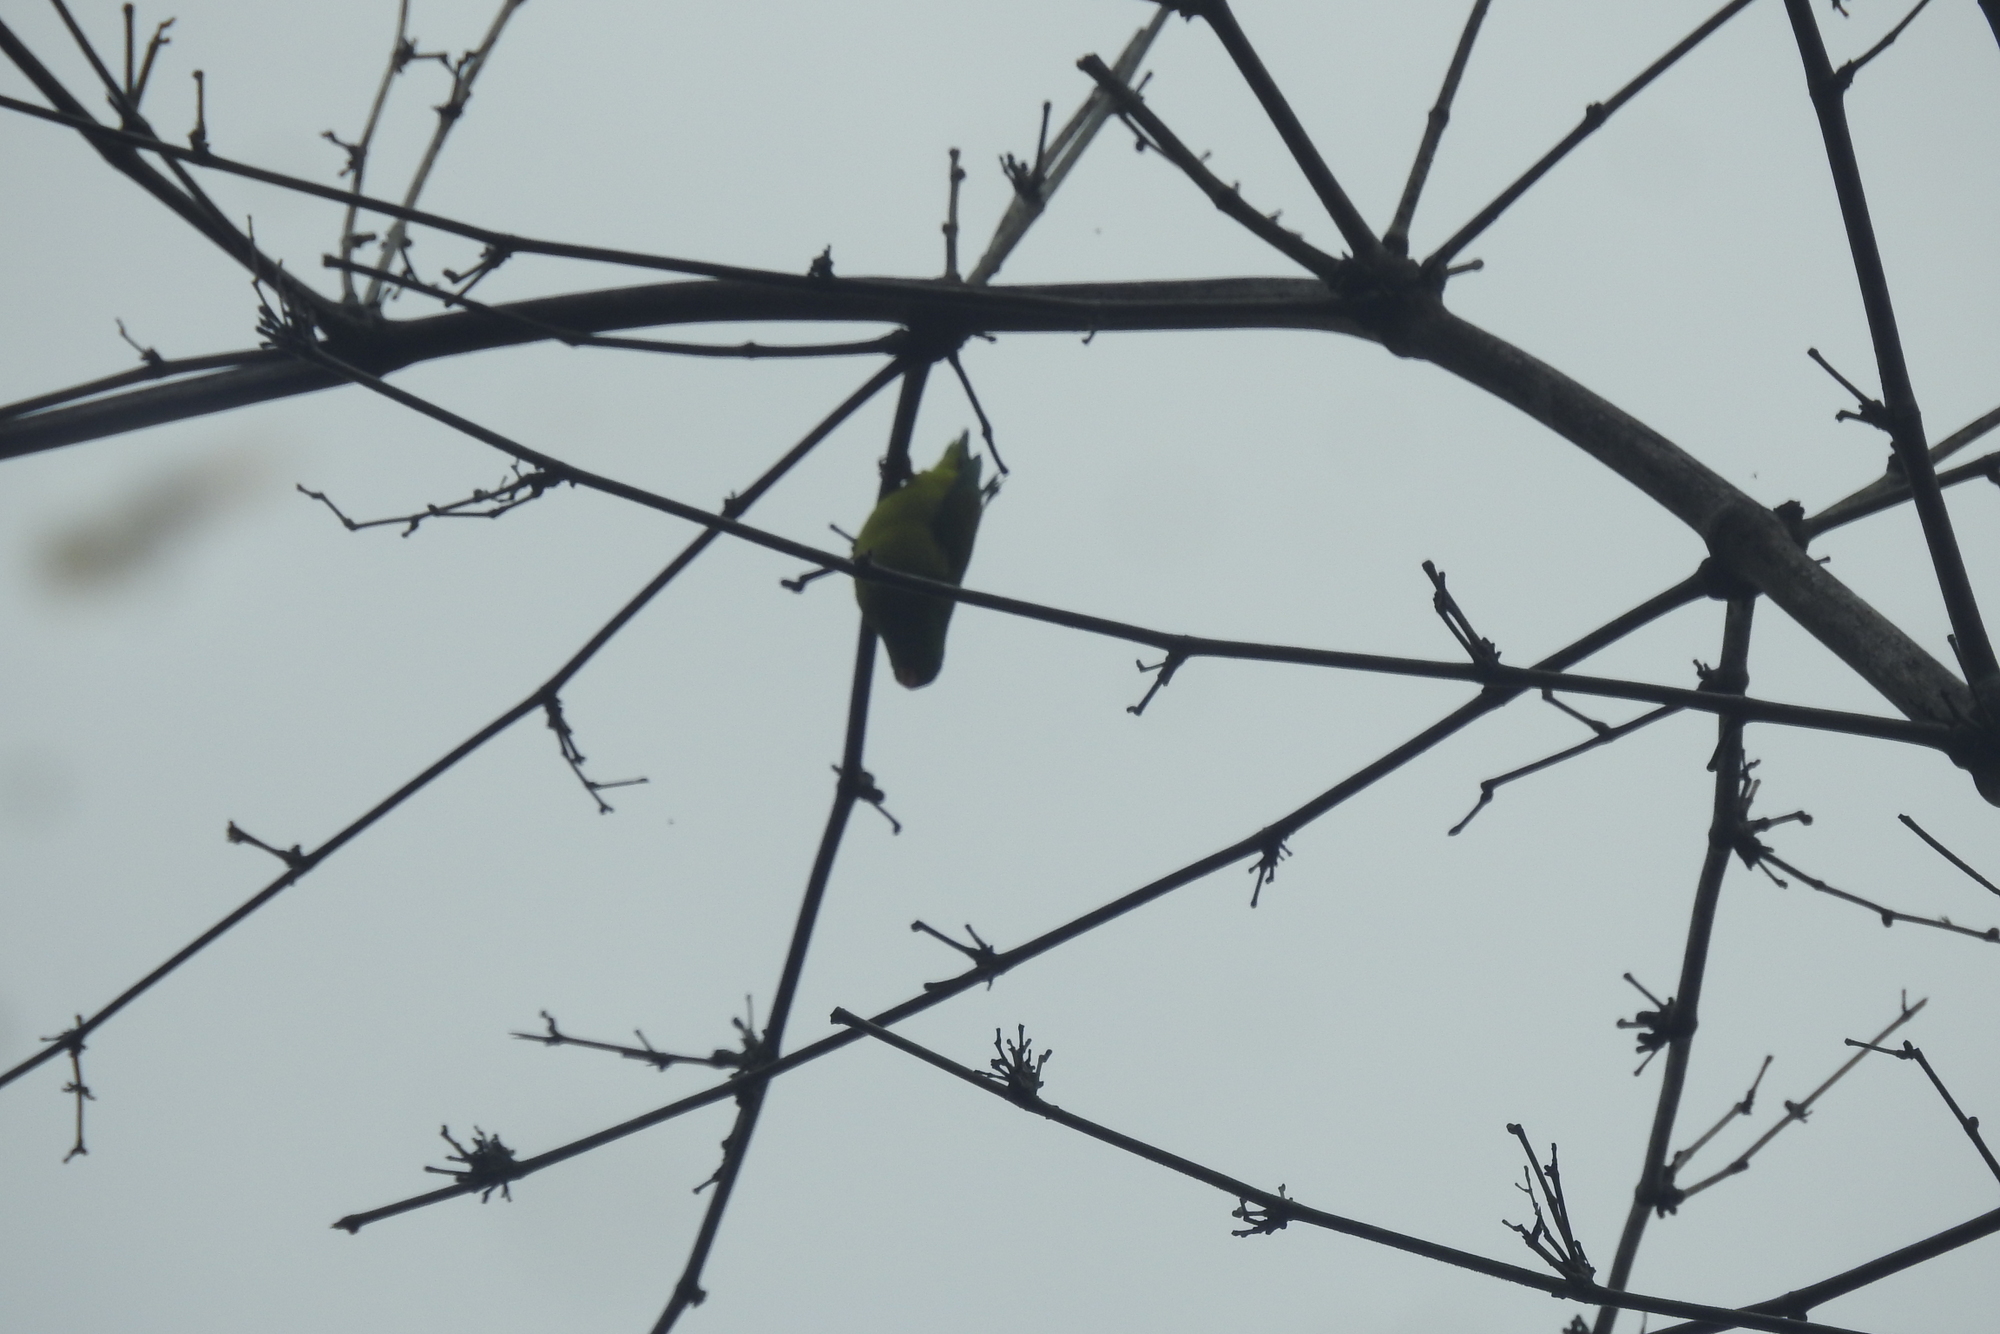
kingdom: Animalia
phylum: Chordata
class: Aves
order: Psittaciformes
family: Psittacidae
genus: Loriculus
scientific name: Loriculus vernalis
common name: Vernal hanging parrot
